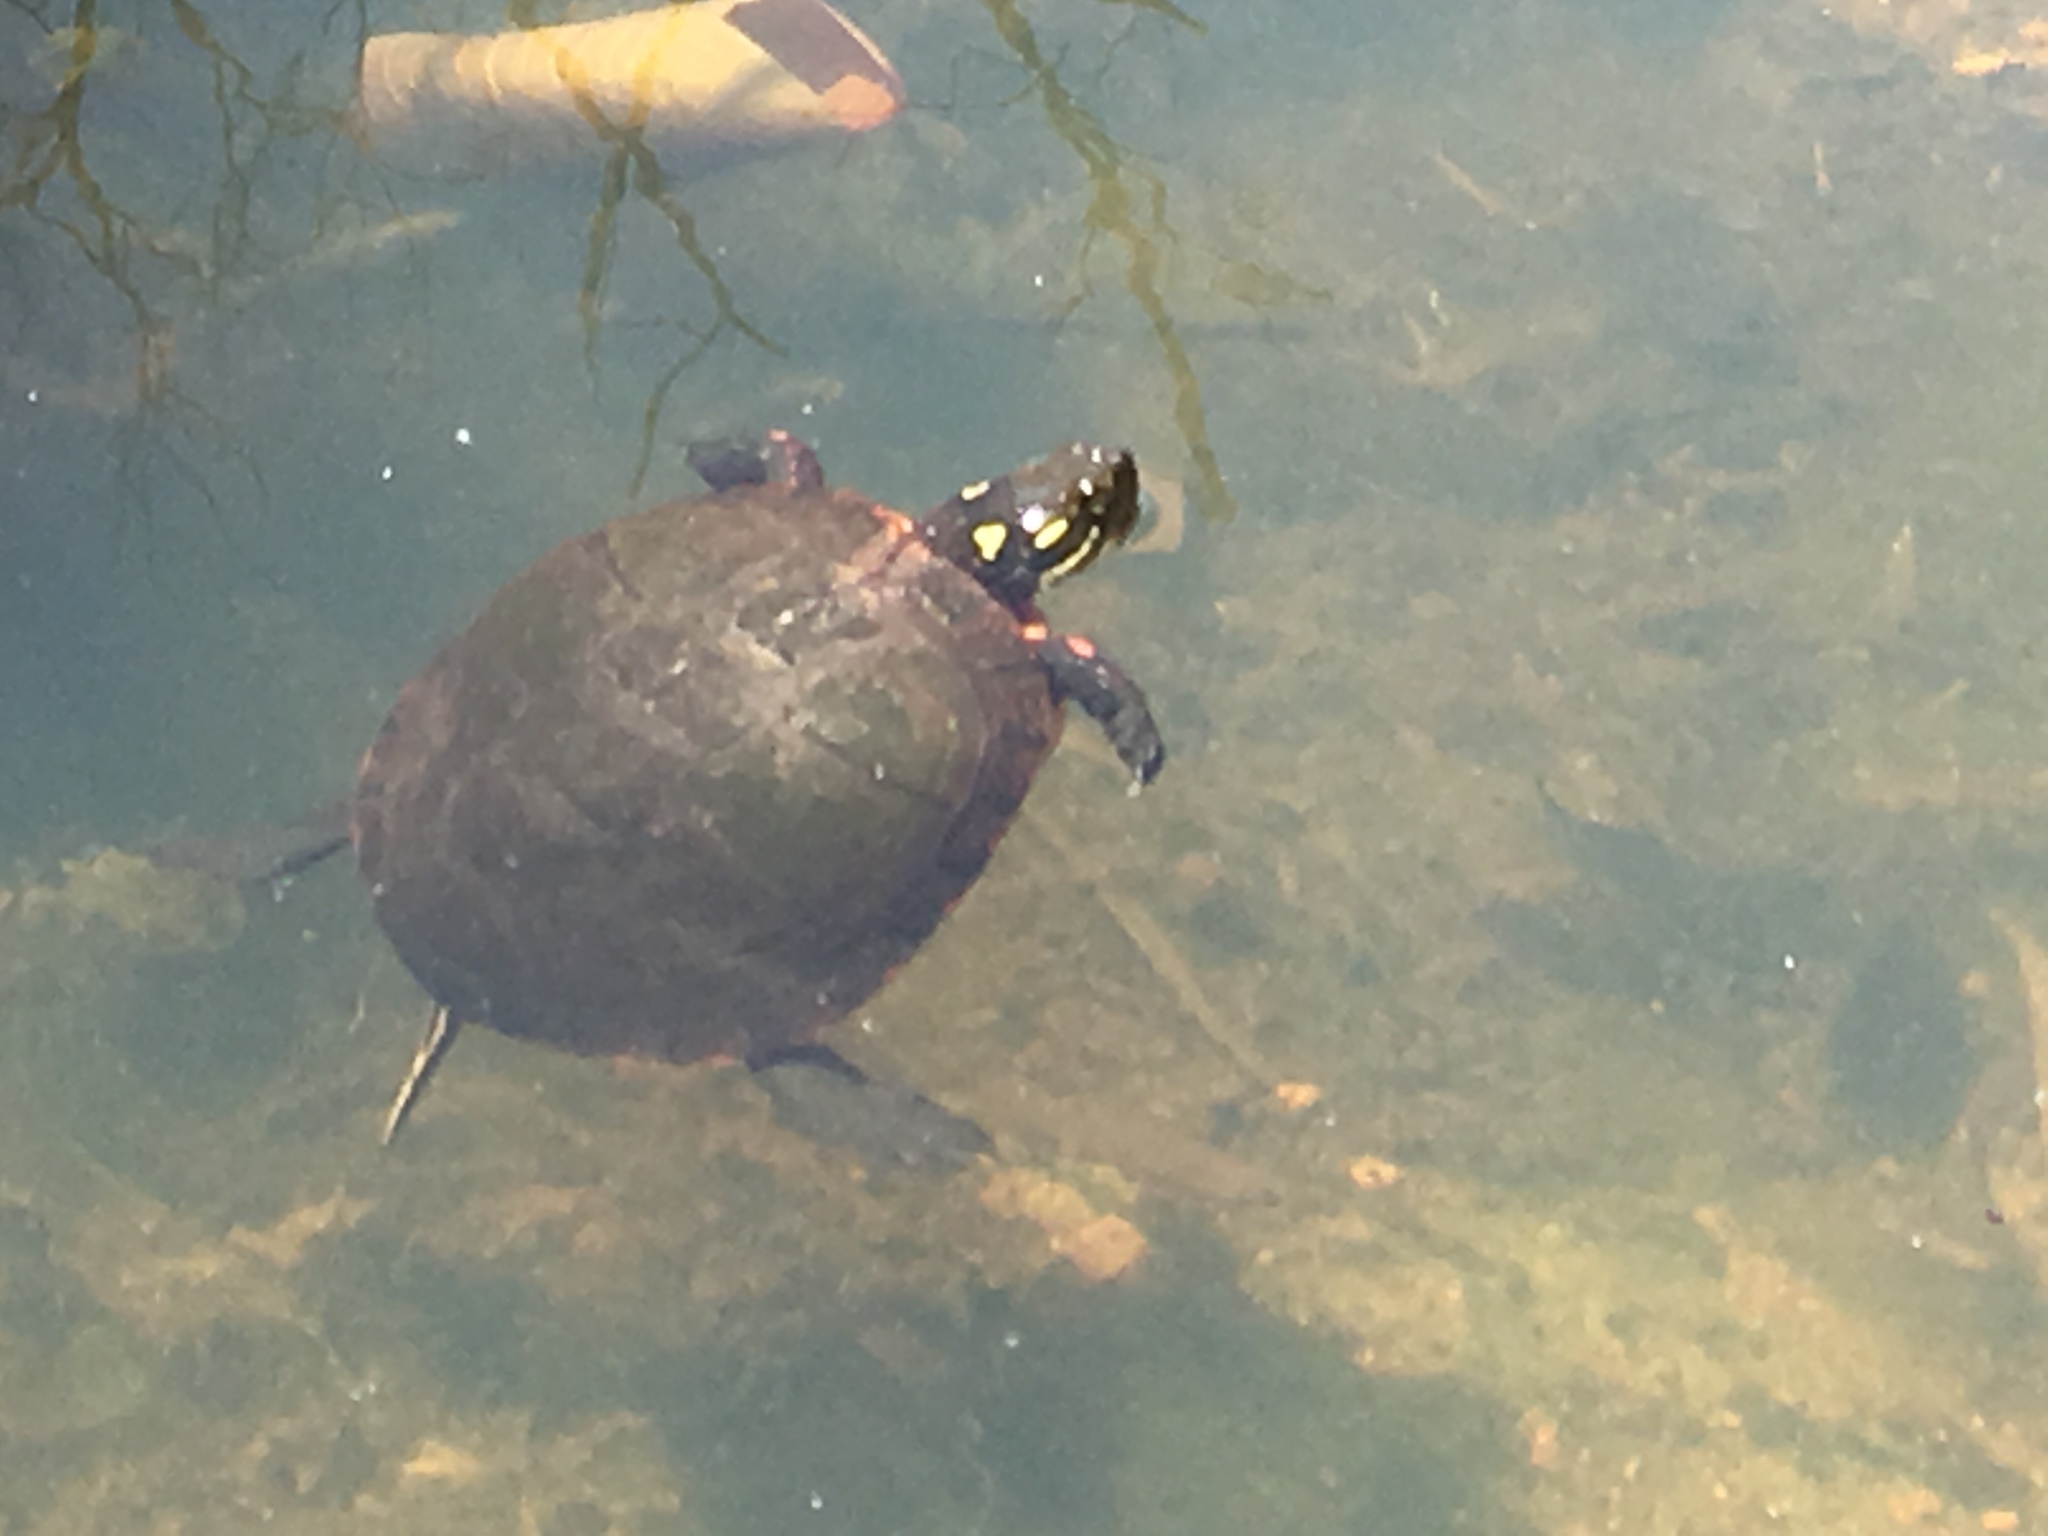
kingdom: Animalia
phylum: Chordata
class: Testudines
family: Emydidae
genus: Chrysemys
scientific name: Chrysemys picta
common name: Painted turtle
